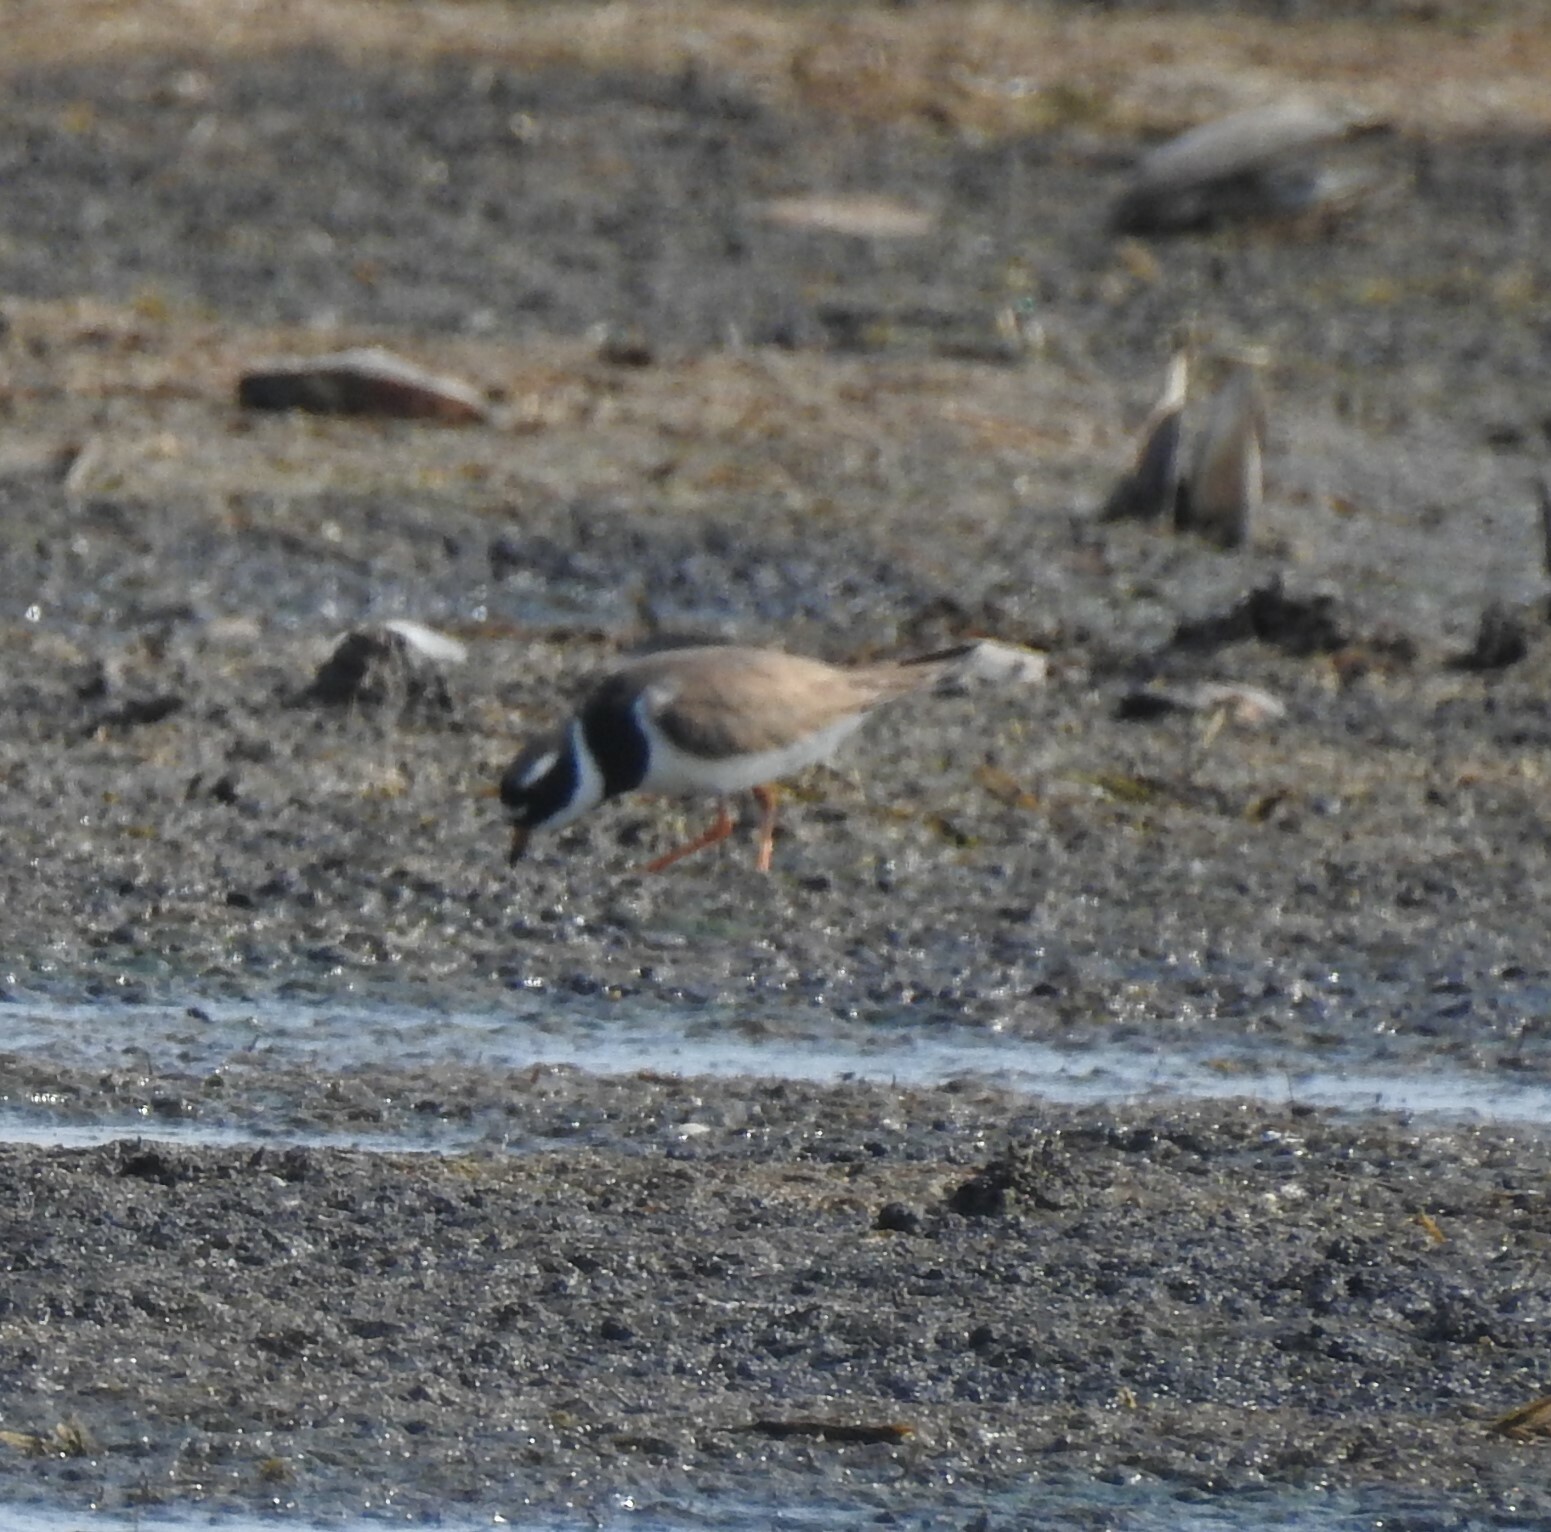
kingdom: Animalia
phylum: Chordata
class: Aves
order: Charadriiformes
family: Charadriidae
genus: Charadrius
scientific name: Charadrius hiaticula
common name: Common ringed plover
